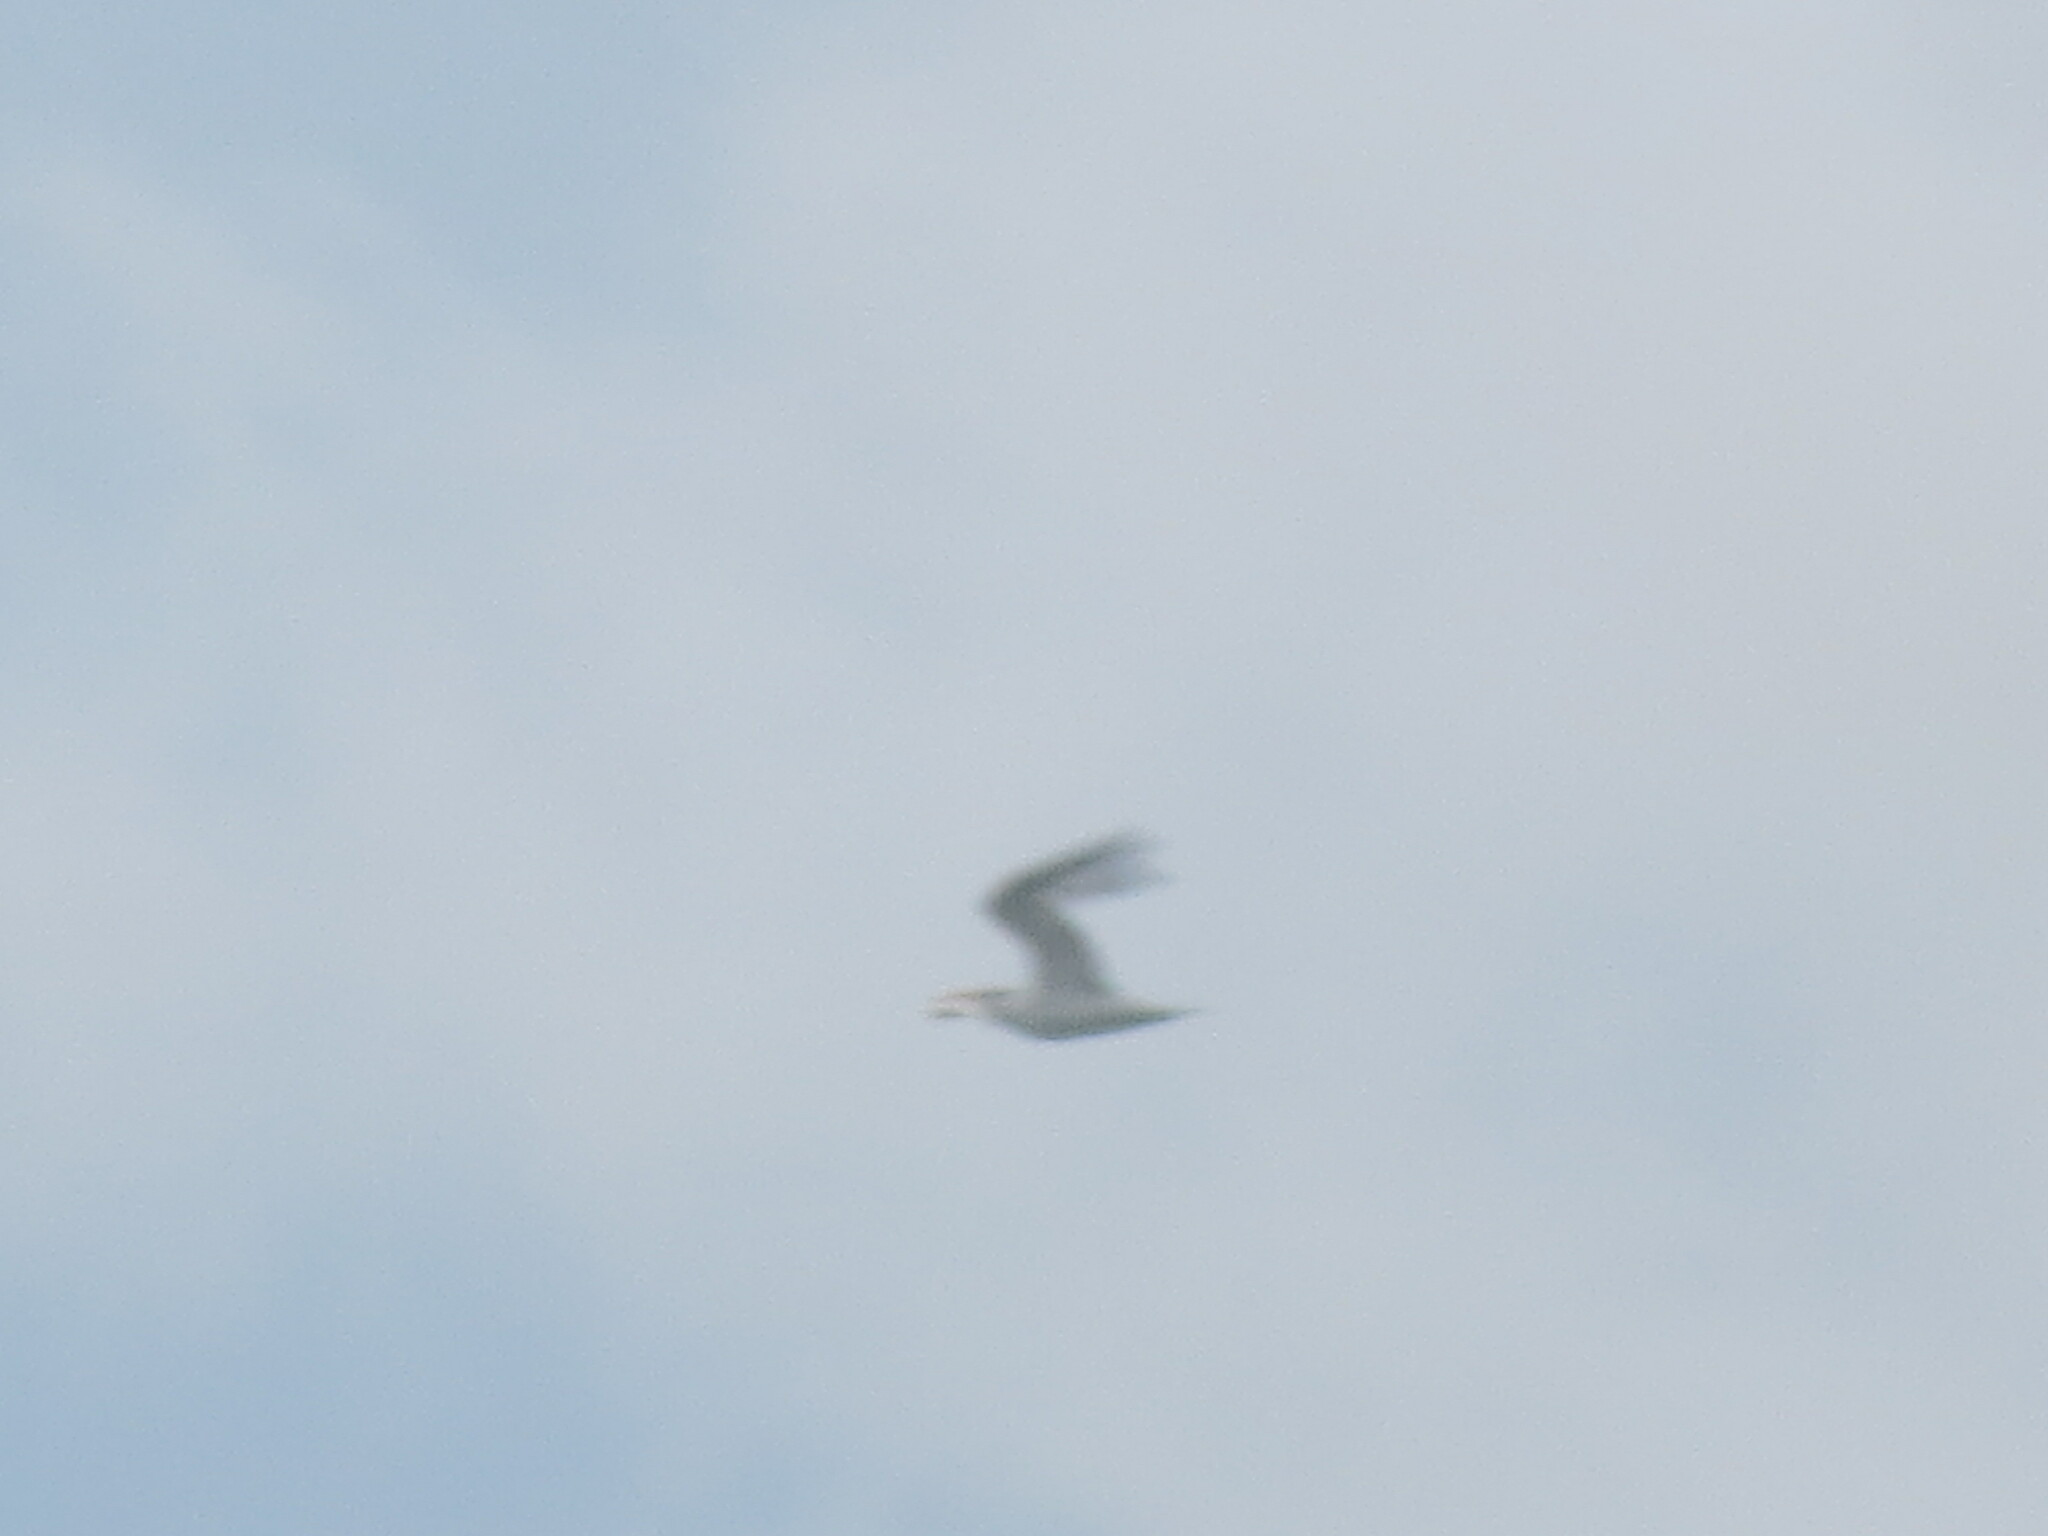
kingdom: Animalia
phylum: Chordata
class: Aves
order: Charadriiformes
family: Laridae
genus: Thalasseus
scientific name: Thalasseus maximus
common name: Royal tern
